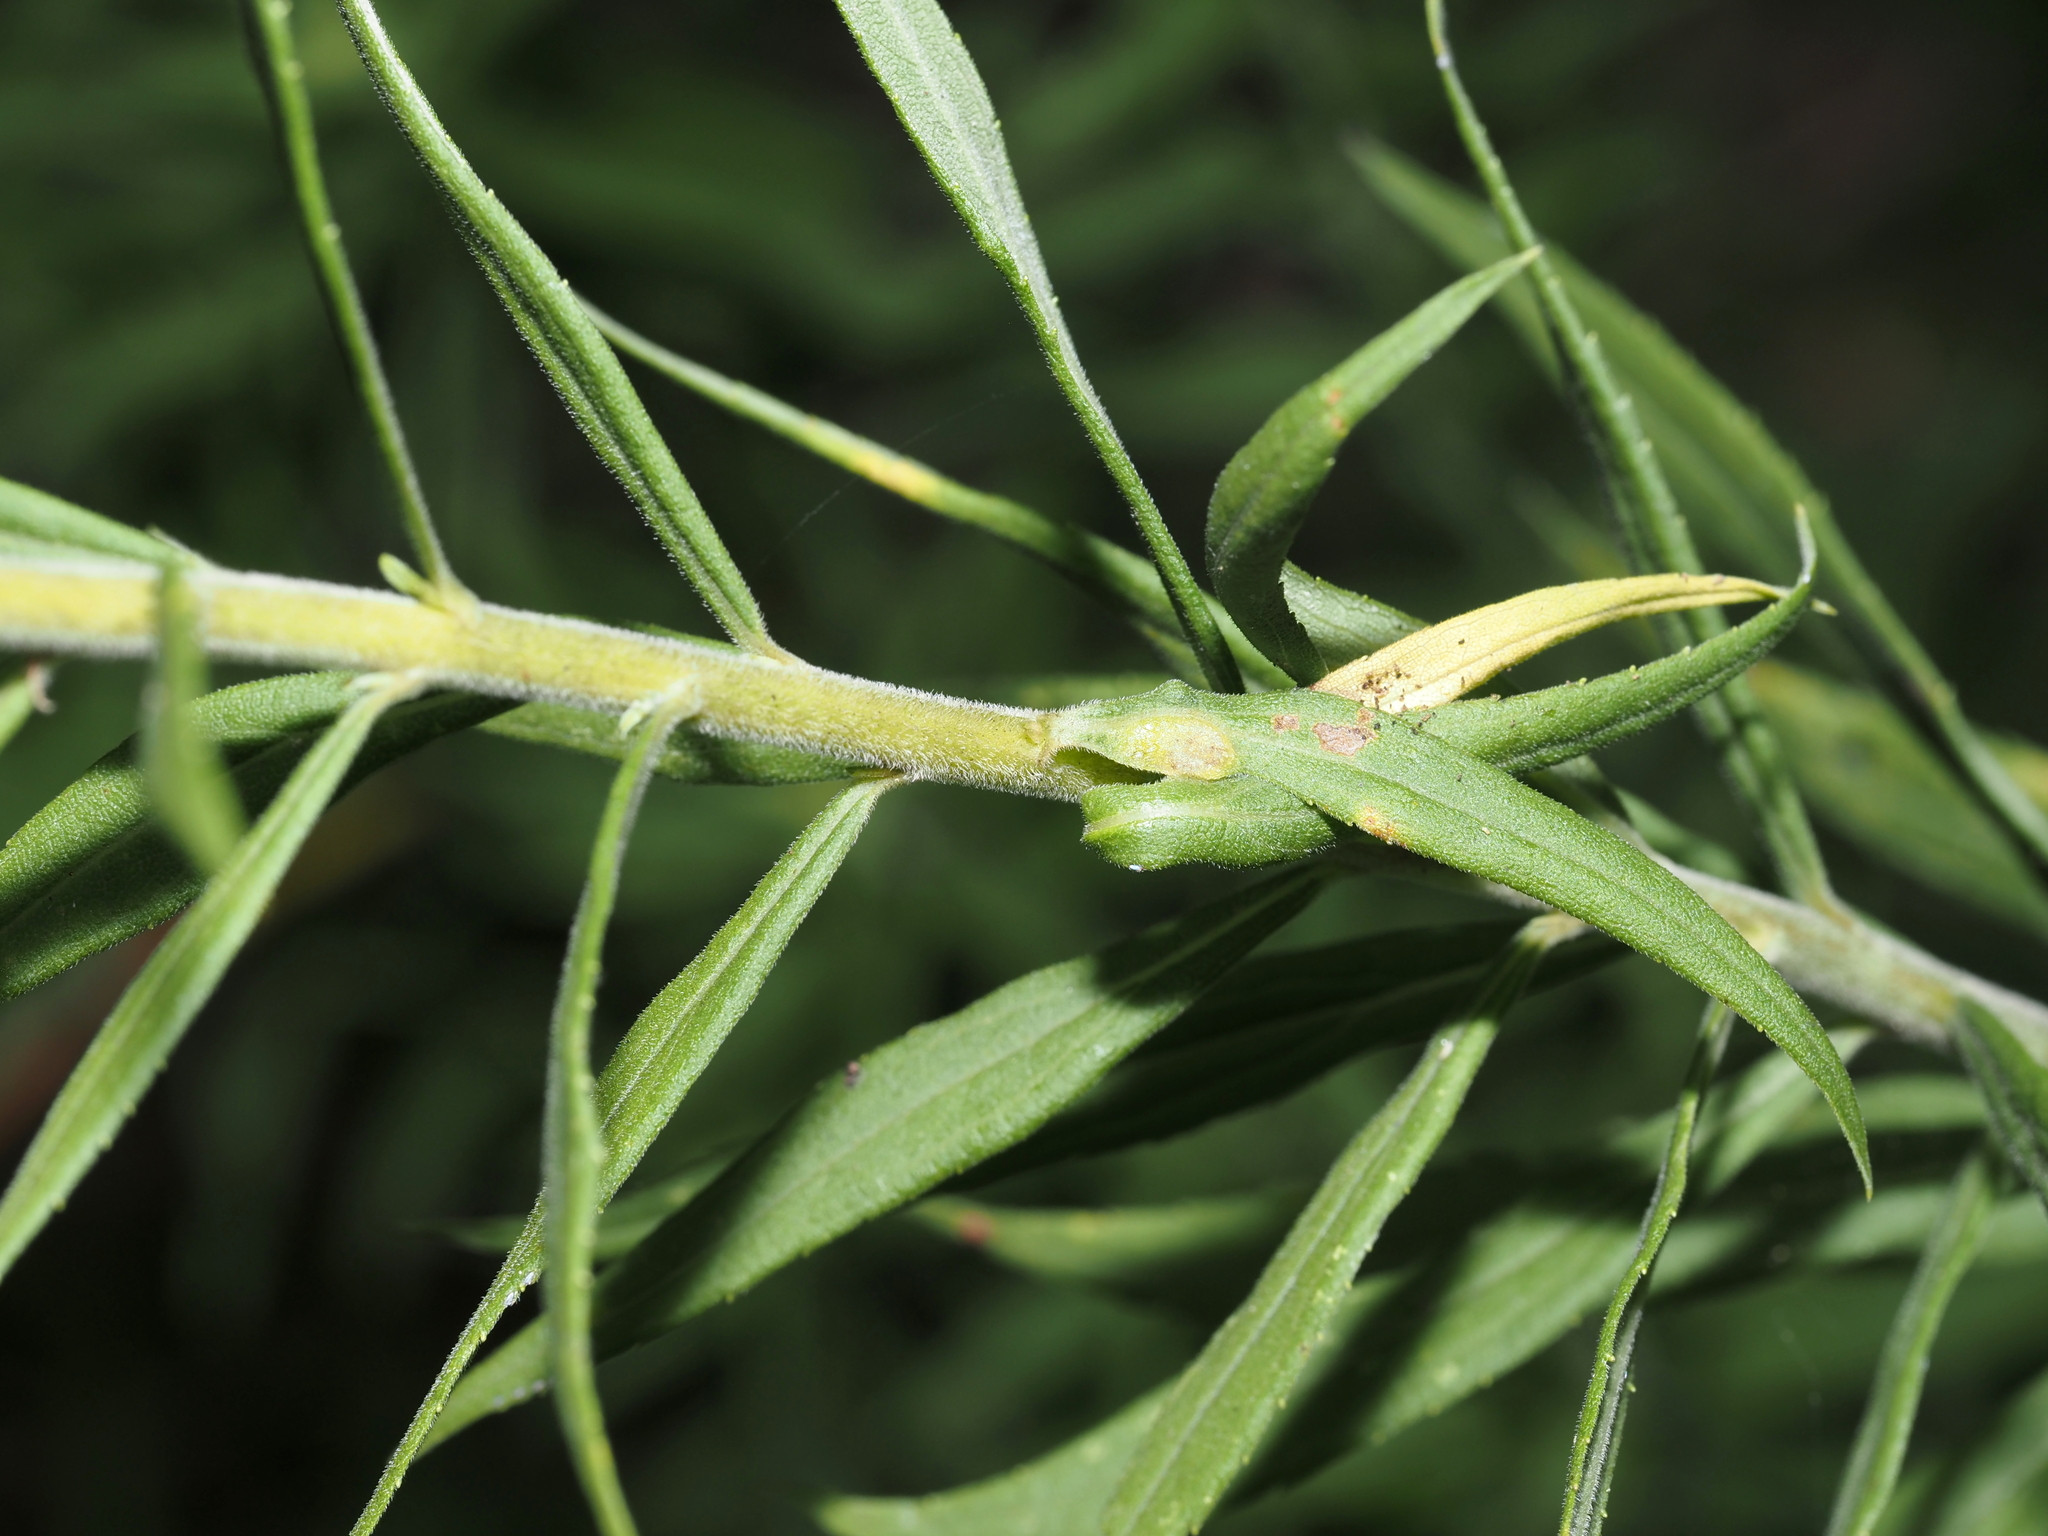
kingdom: Animalia
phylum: Arthropoda
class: Insecta
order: Diptera
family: Cecidomyiidae
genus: Asphondylia
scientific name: Asphondylia solidaginis
